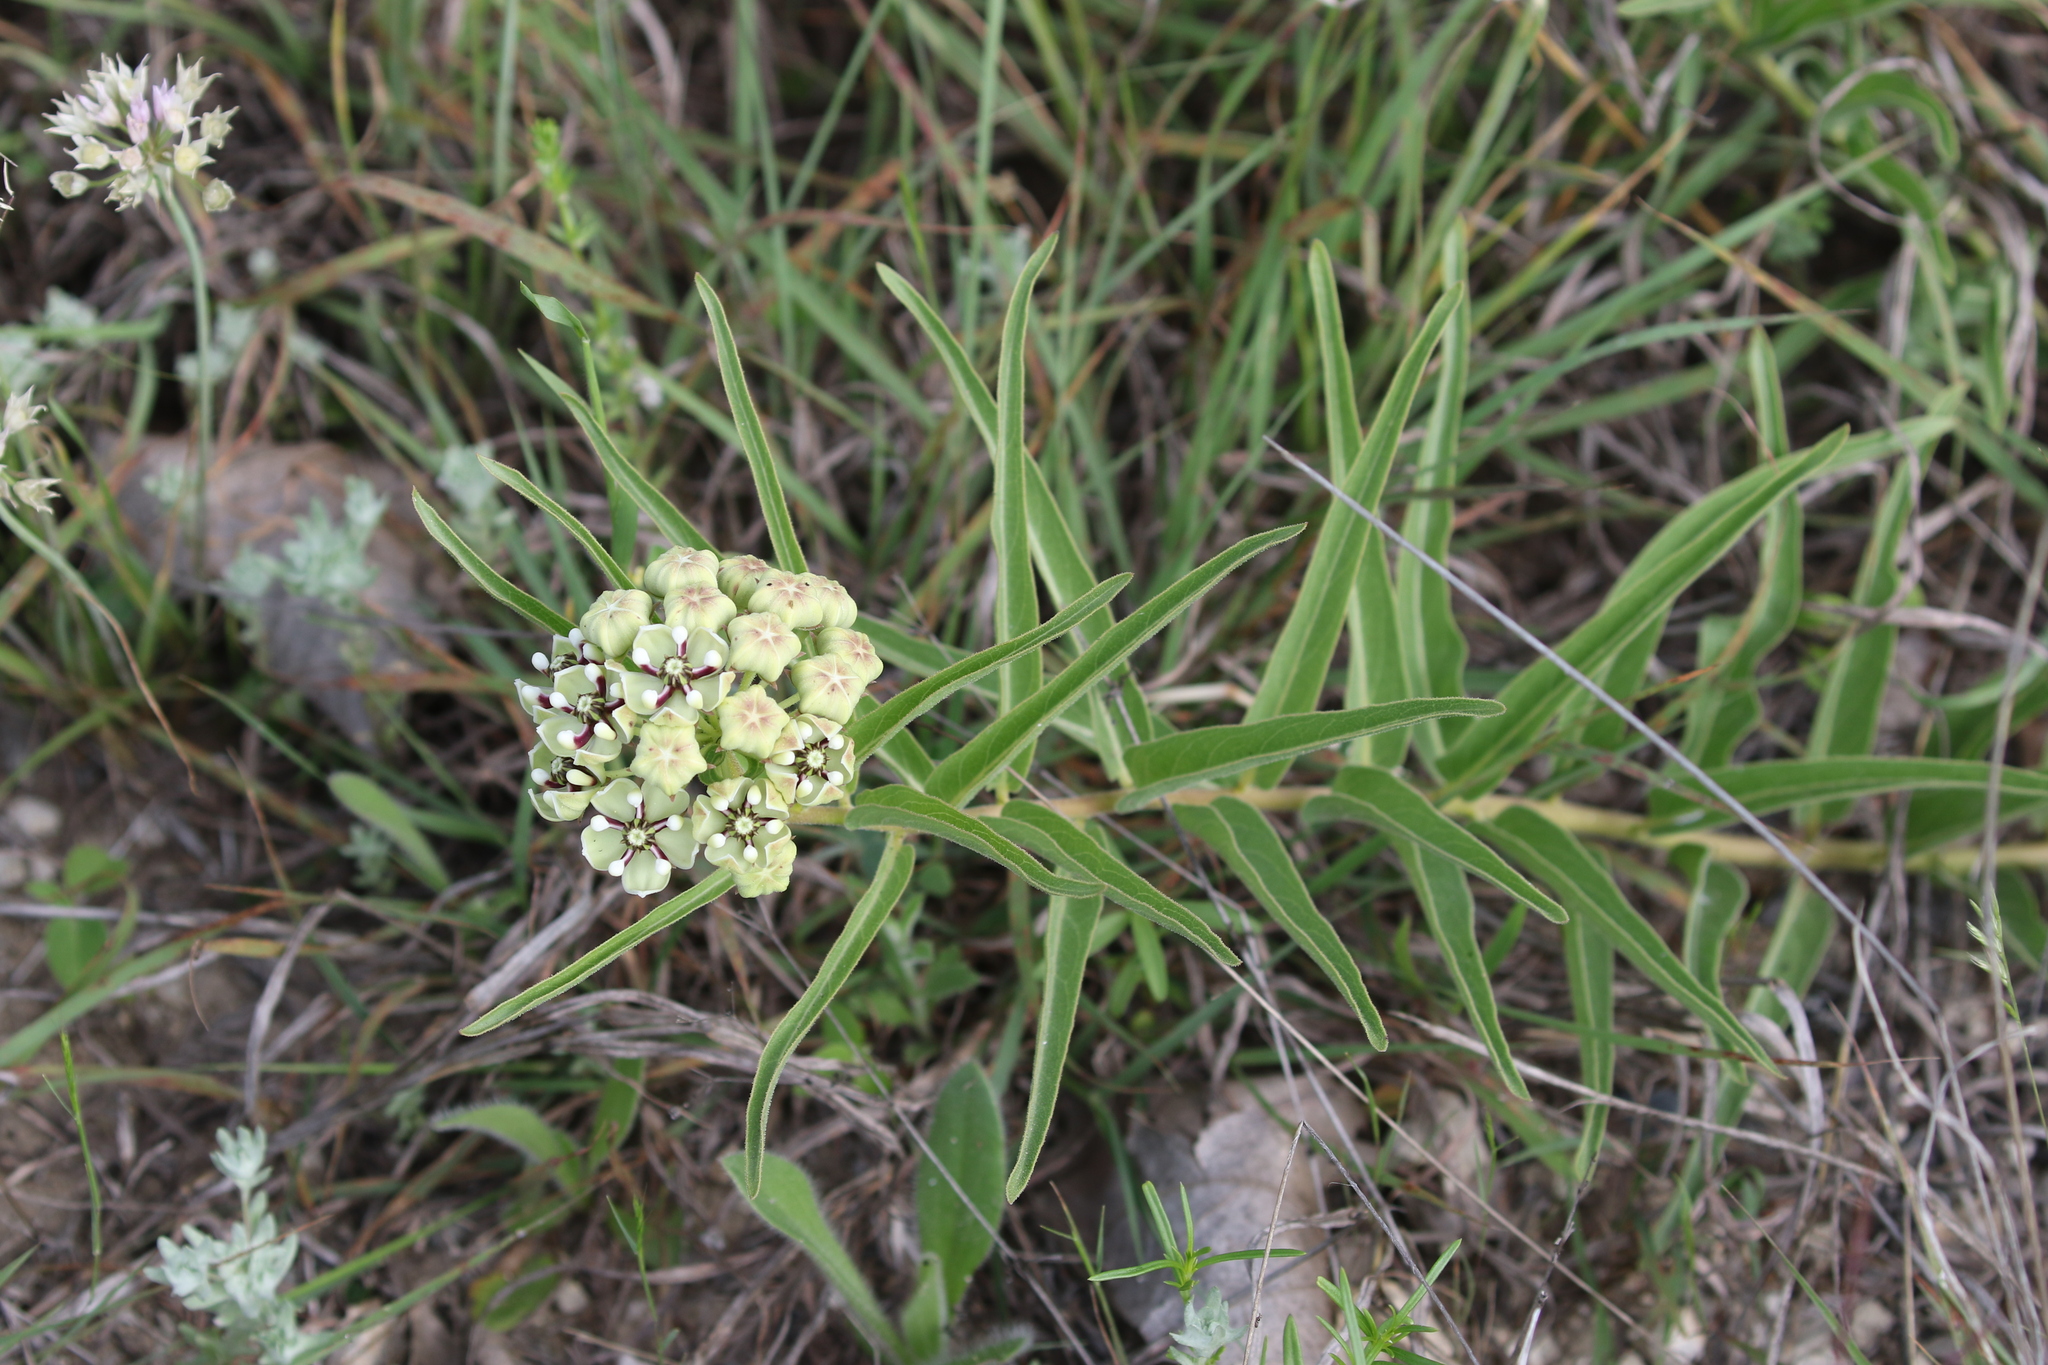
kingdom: Plantae
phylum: Tracheophyta
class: Magnoliopsida
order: Gentianales
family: Apocynaceae
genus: Asclepias
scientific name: Asclepias asperula
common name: Antelope horns
